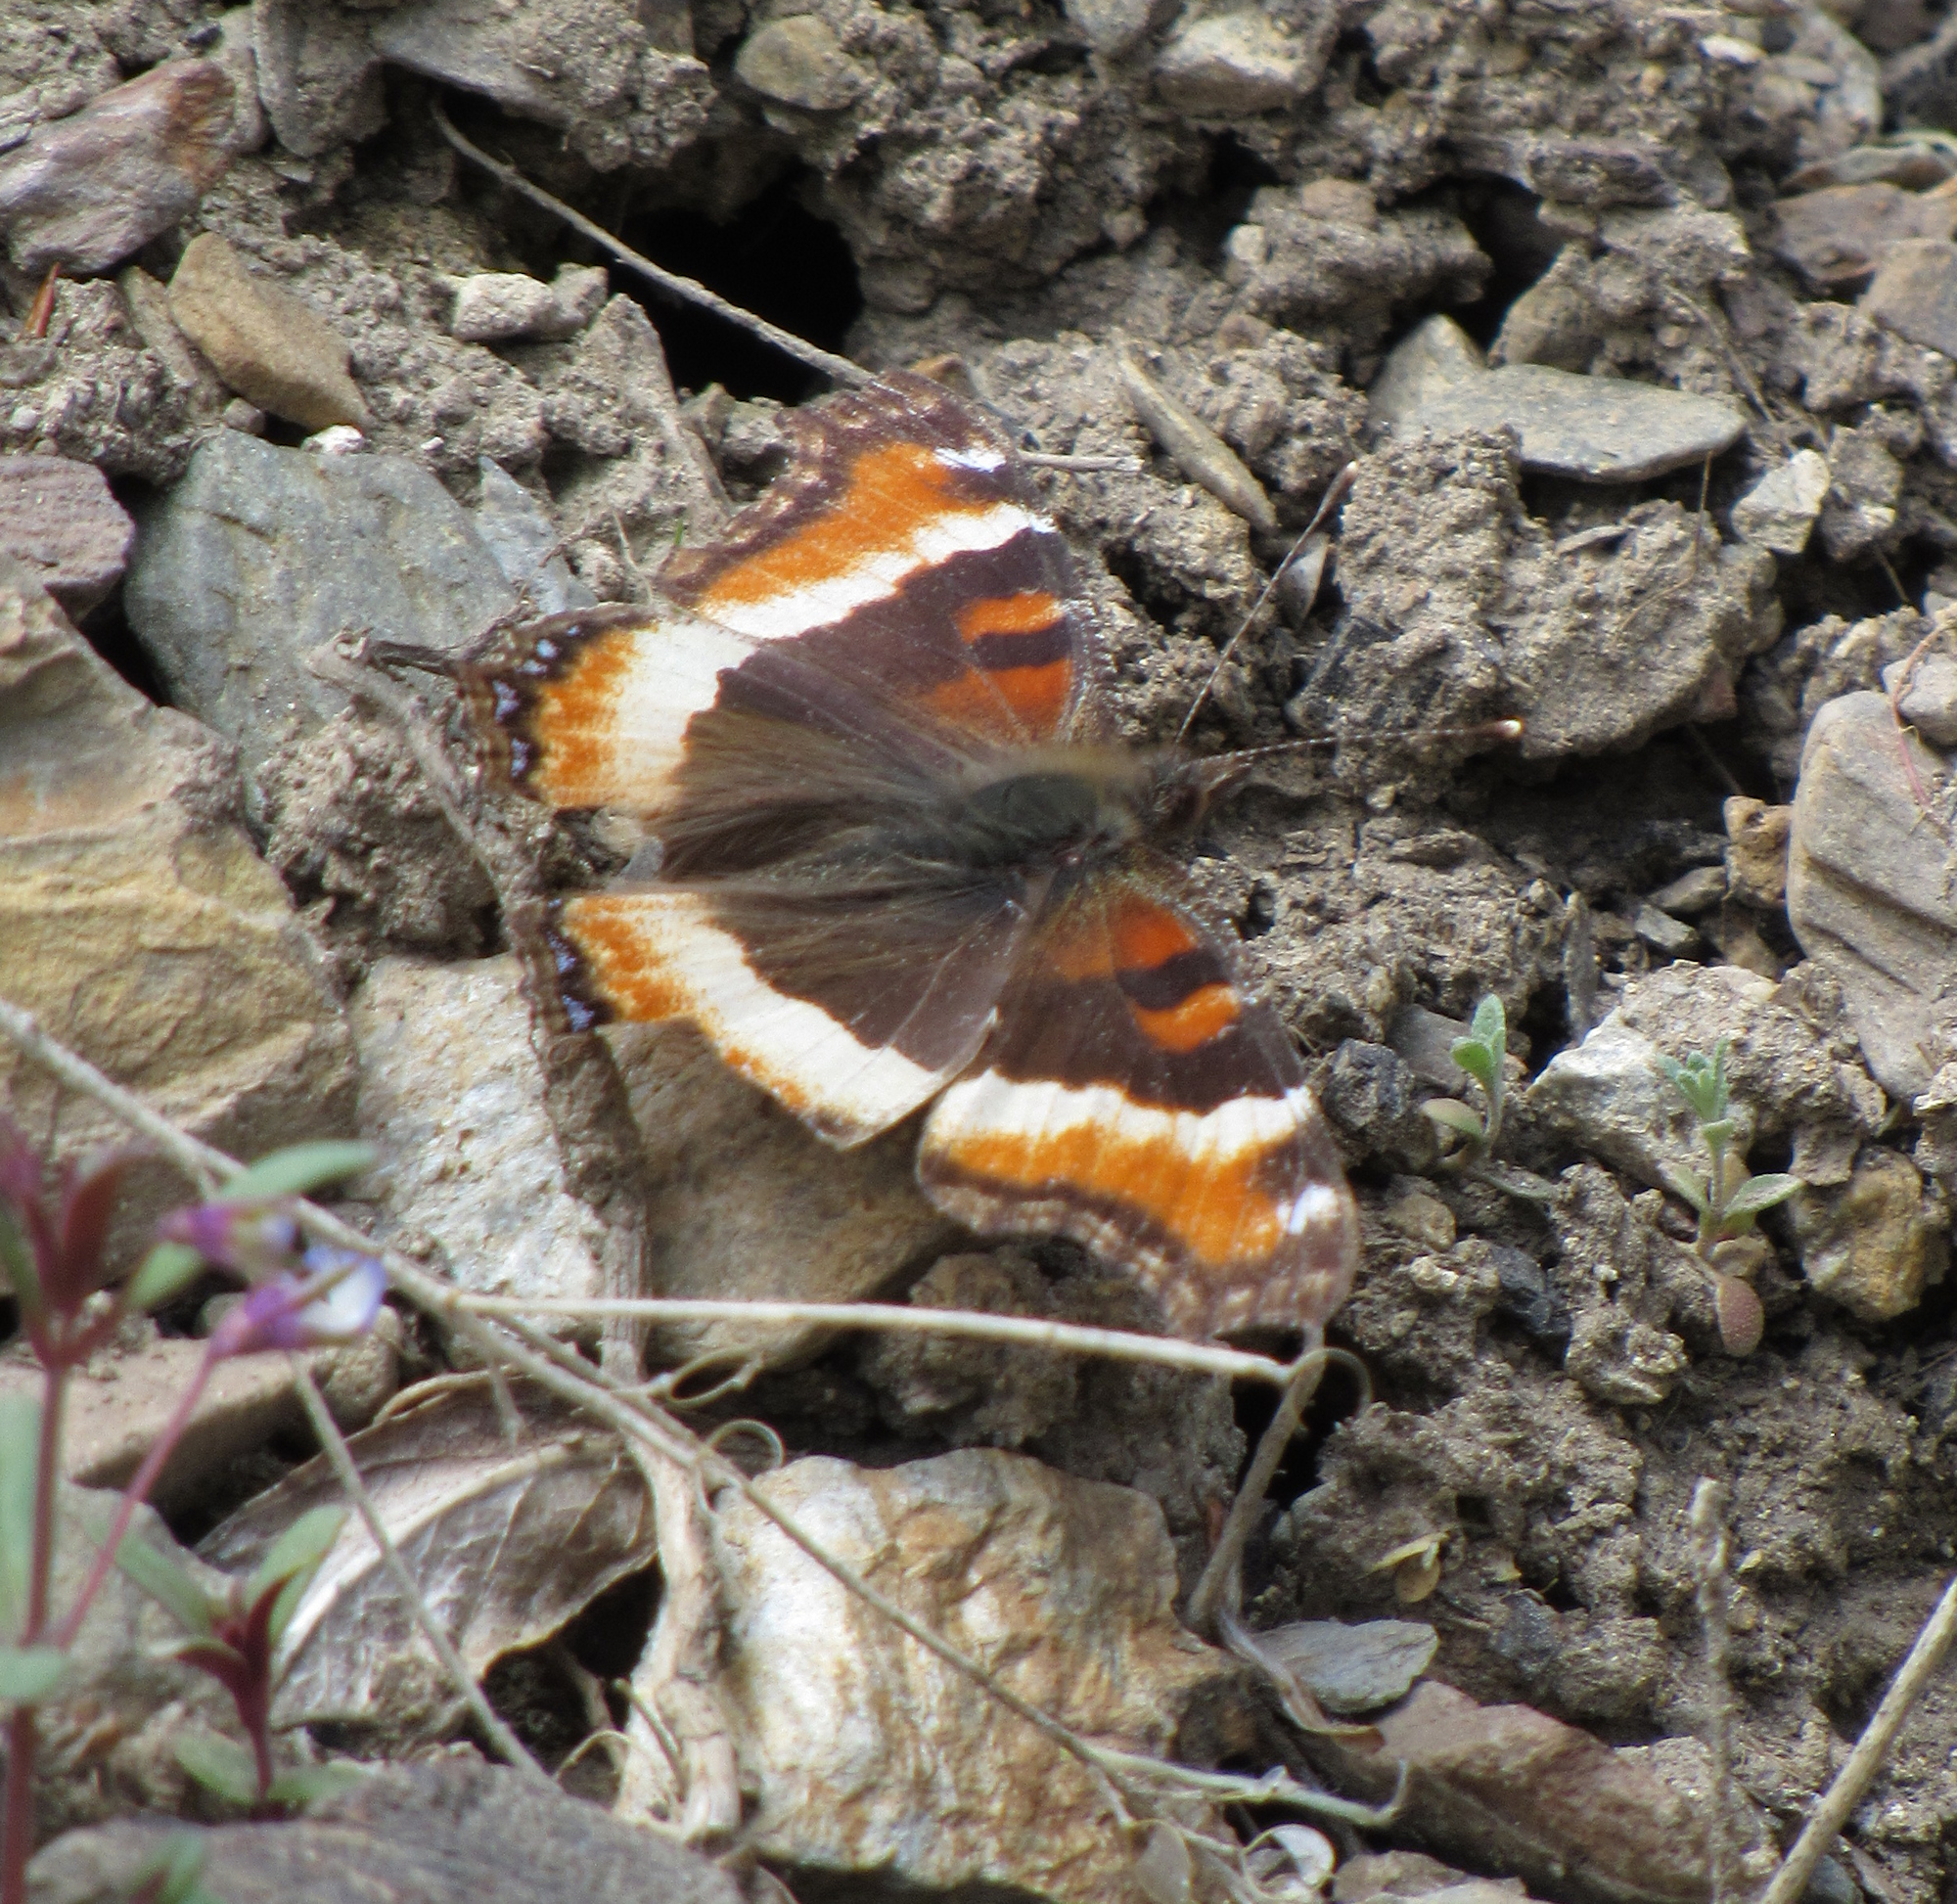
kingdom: Animalia
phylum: Arthropoda
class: Insecta
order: Lepidoptera
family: Nymphalidae
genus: Aglais
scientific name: Aglais milberti
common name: Milbert's tortoiseshell
